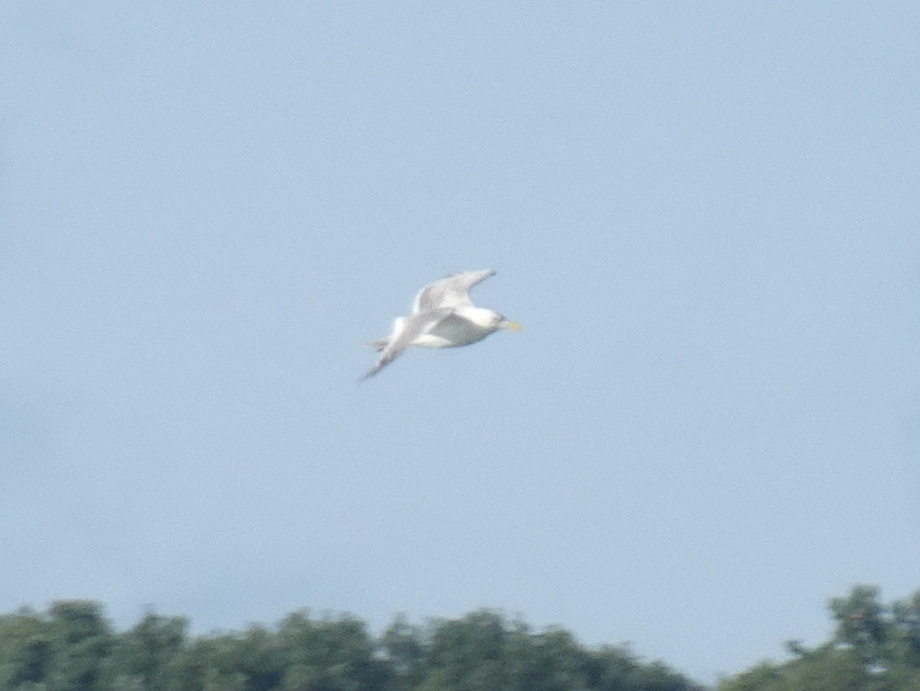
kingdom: Animalia
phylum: Chordata
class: Aves
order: Charadriiformes
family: Laridae
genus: Larus
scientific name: Larus argentatus
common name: Herring gull
